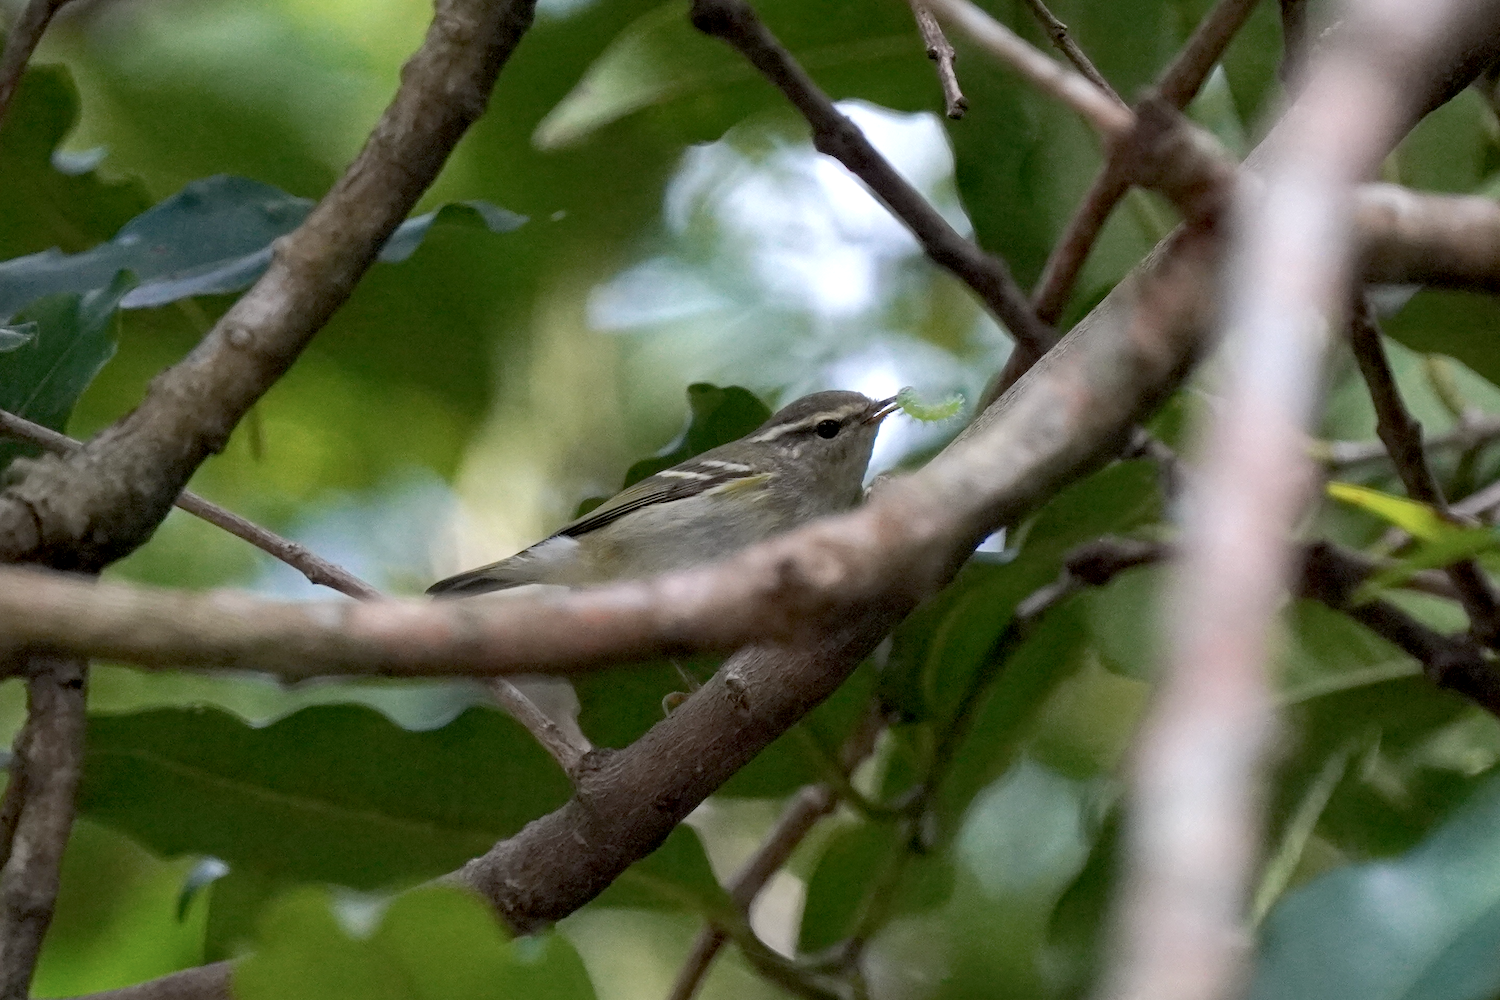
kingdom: Animalia
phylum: Chordata
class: Aves
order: Passeriformes
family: Phylloscopidae
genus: Phylloscopus
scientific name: Phylloscopus inornatus
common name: Yellow-browed warbler
